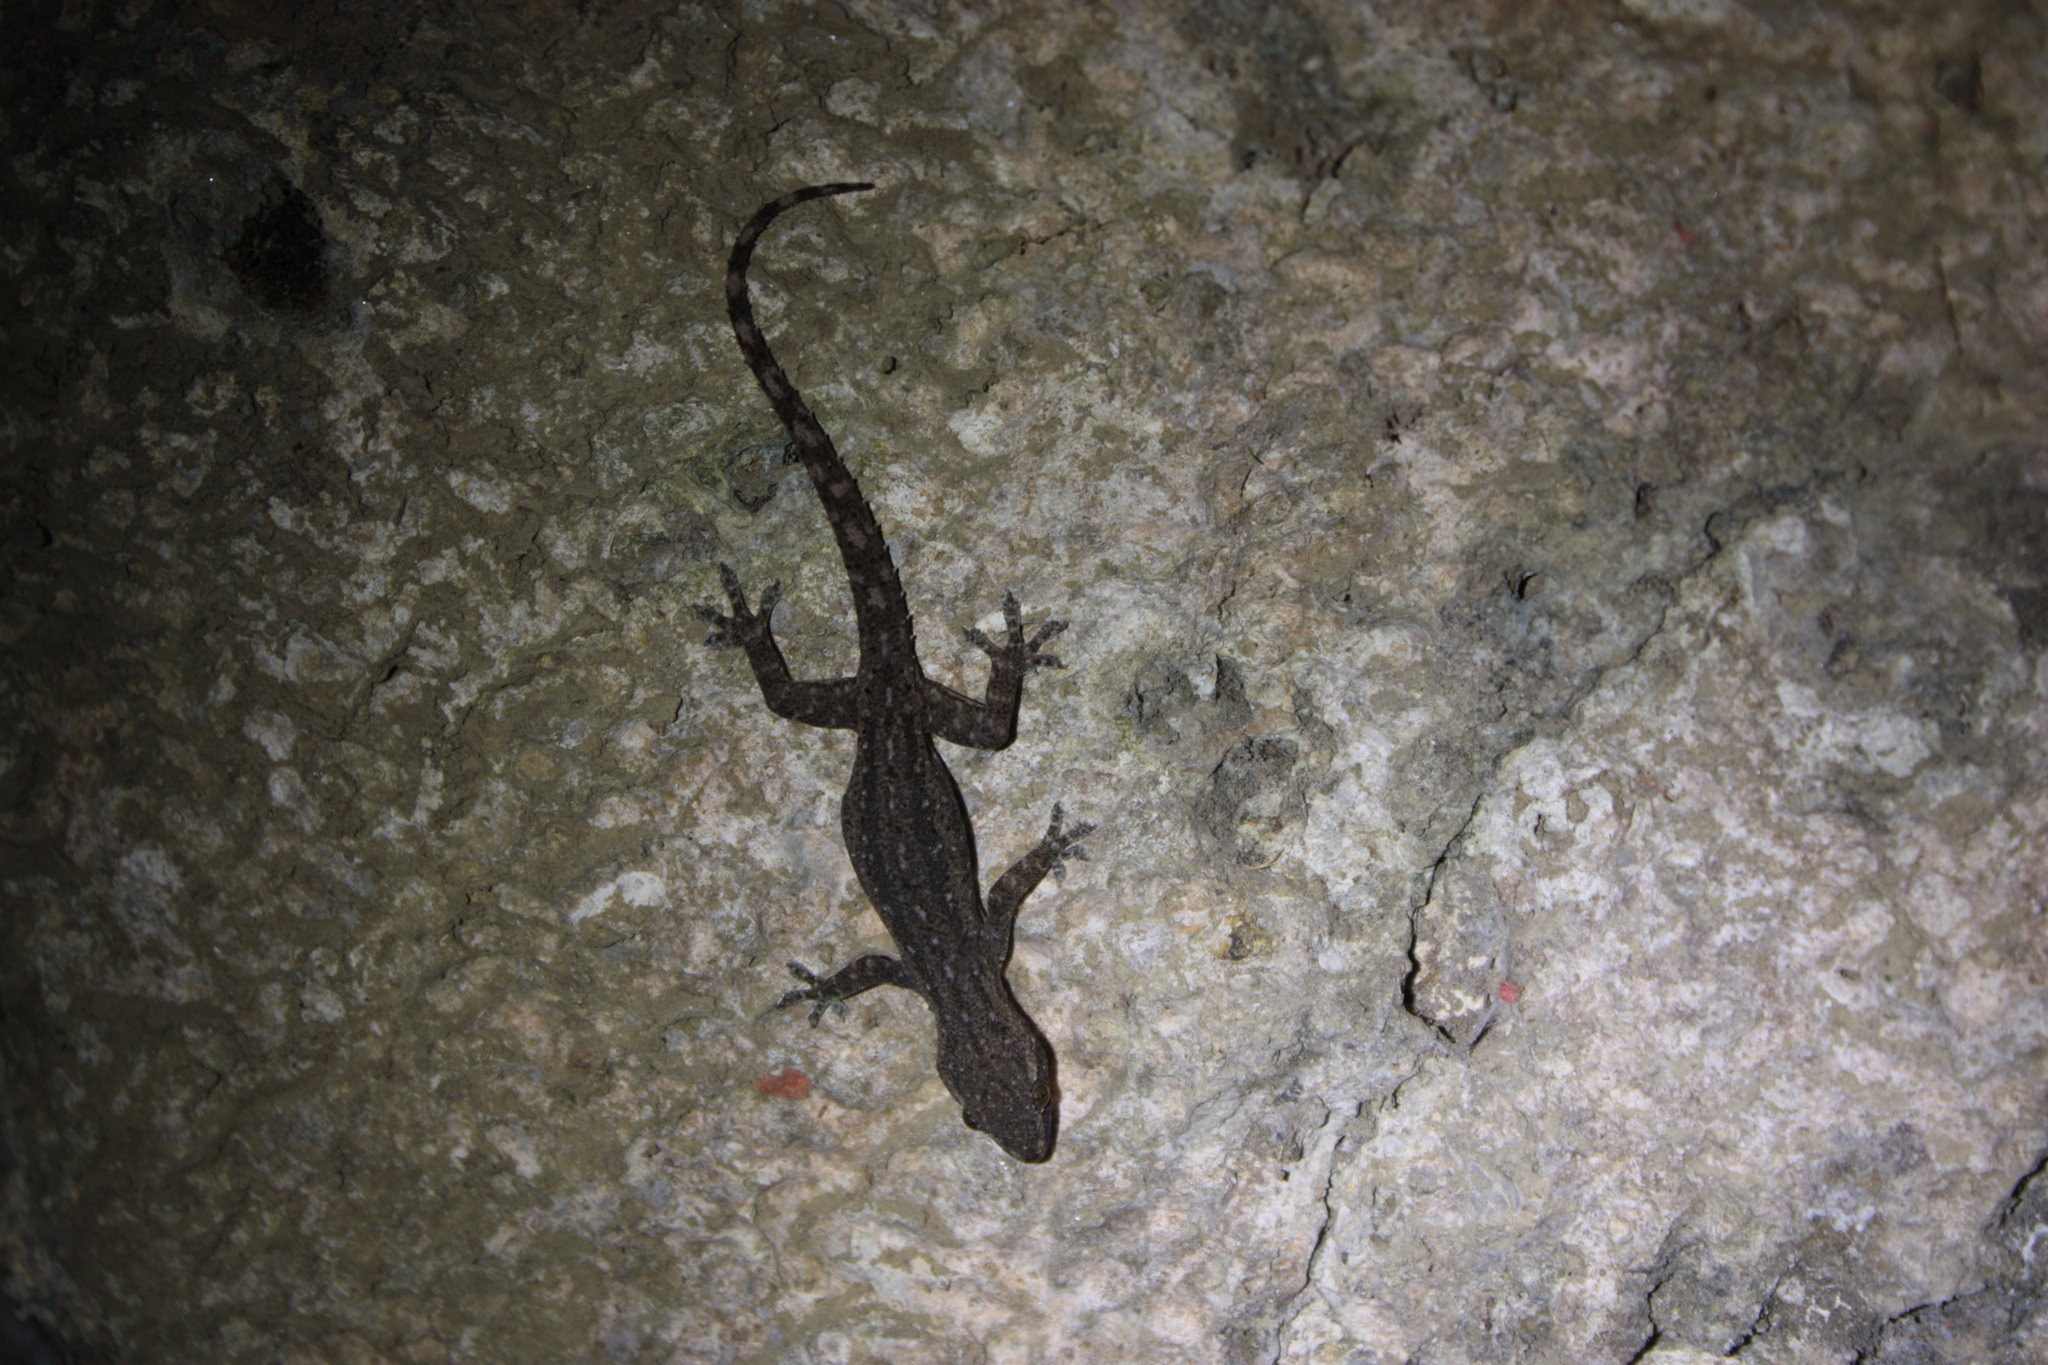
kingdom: Animalia
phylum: Chordata
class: Squamata
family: Gekkonidae
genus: Hemidactylus
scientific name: Hemidactylus frenatus
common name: Common house gecko
